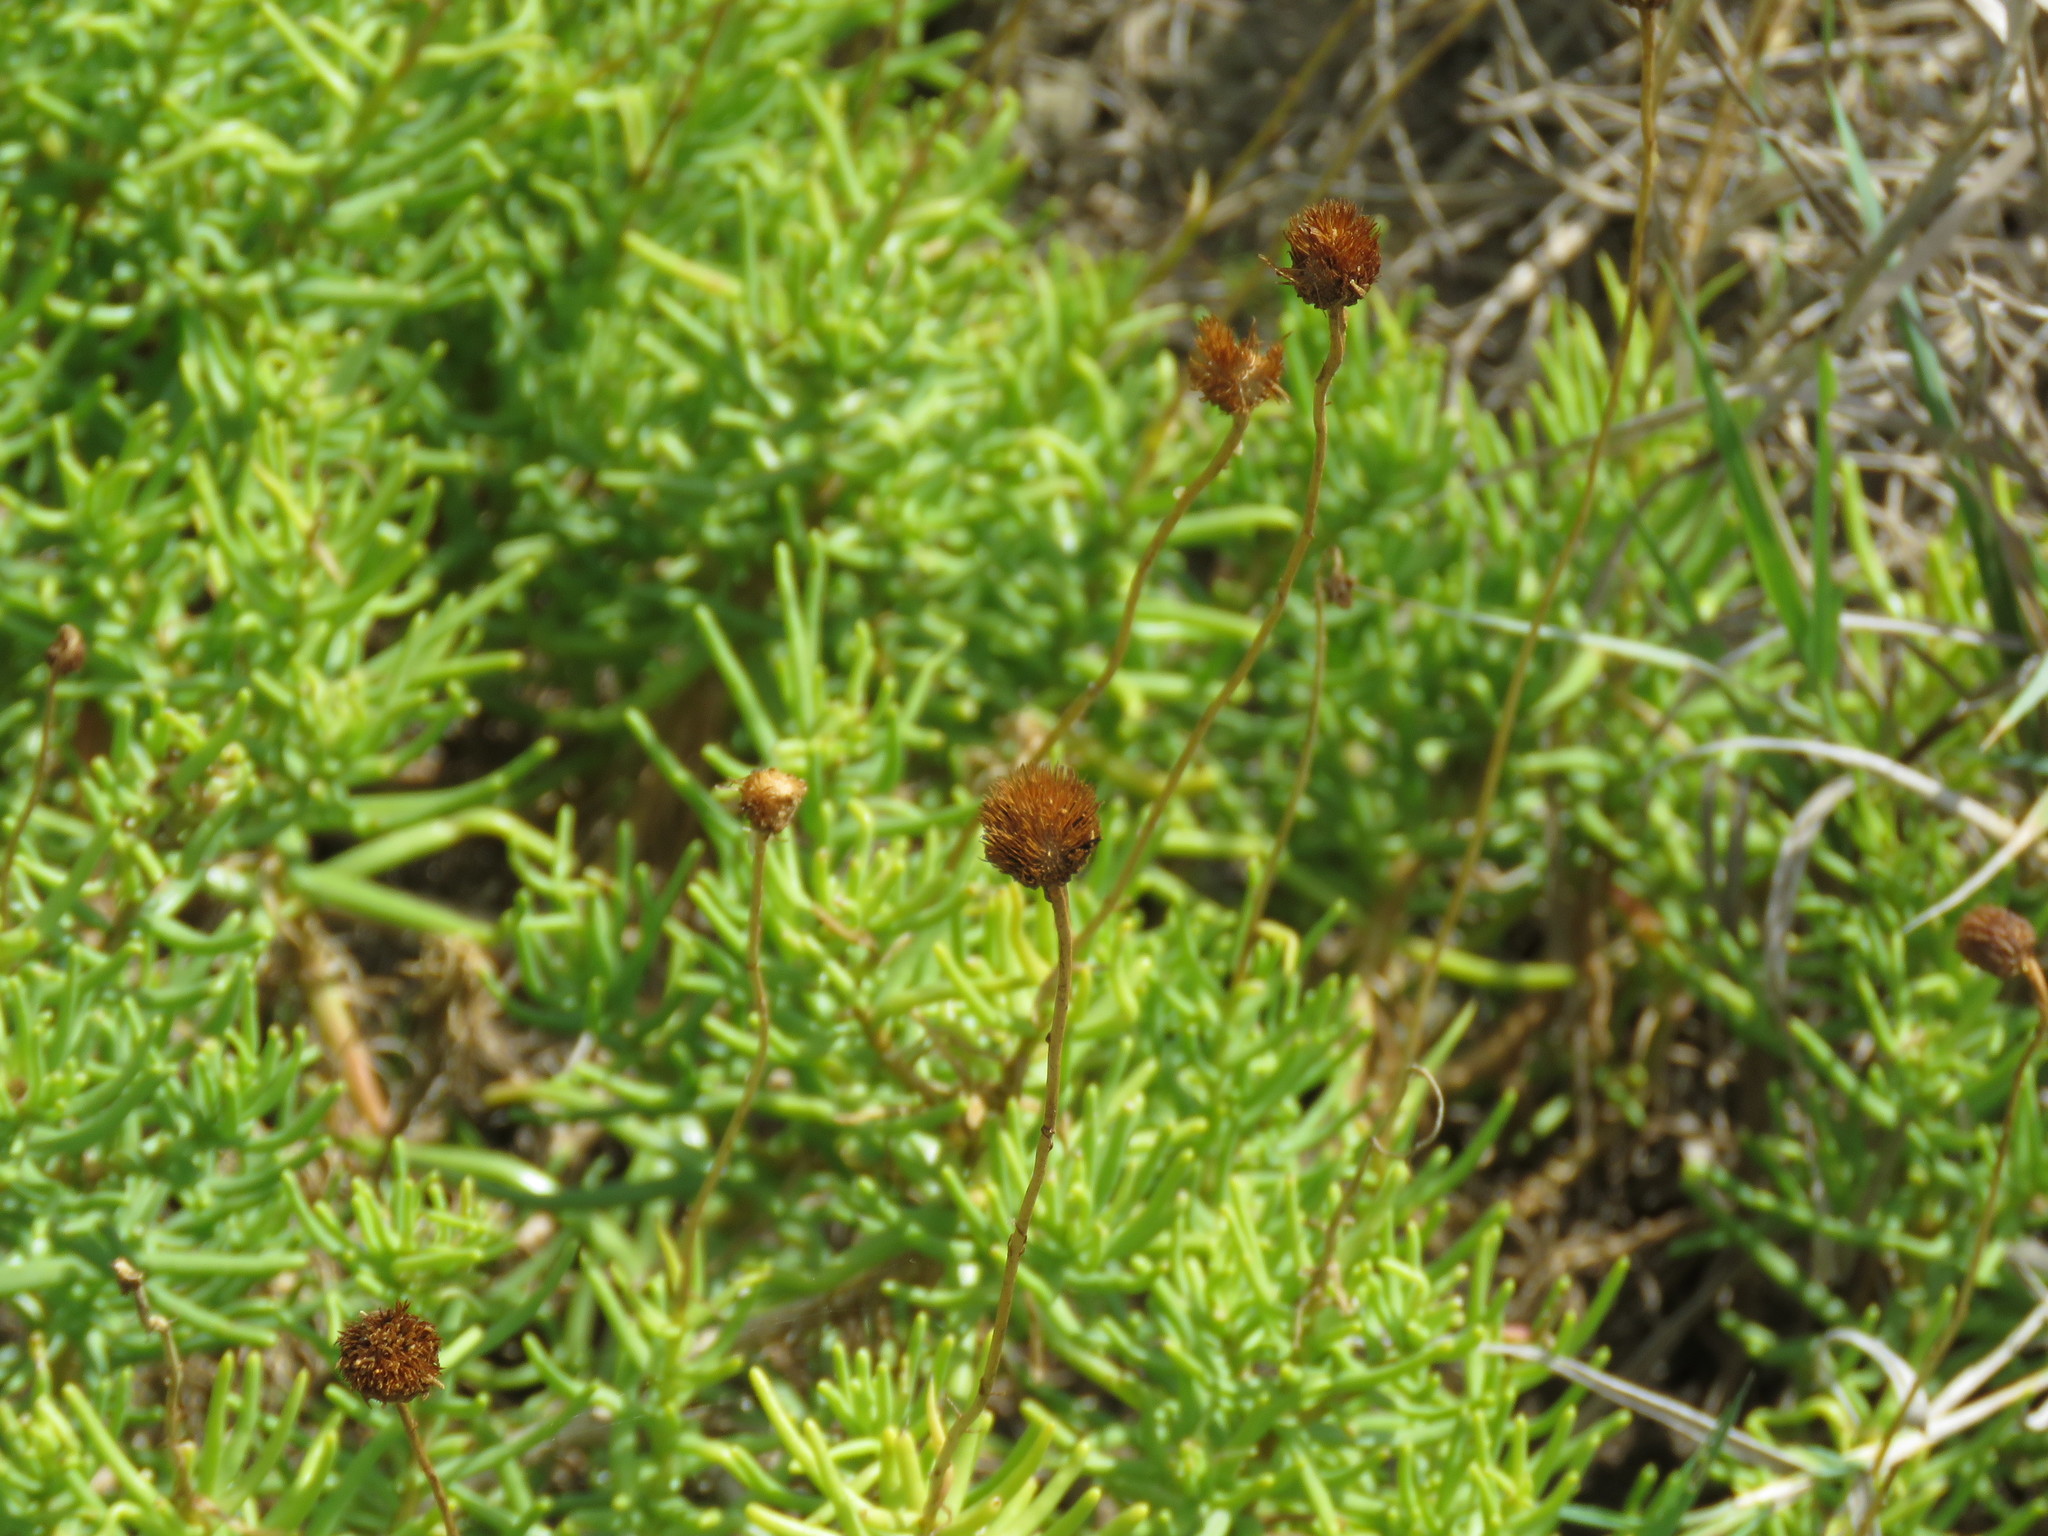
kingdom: Plantae
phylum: Tracheophyta
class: Magnoliopsida
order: Asterales
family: Asteraceae
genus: Varilla
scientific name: Varilla texana
